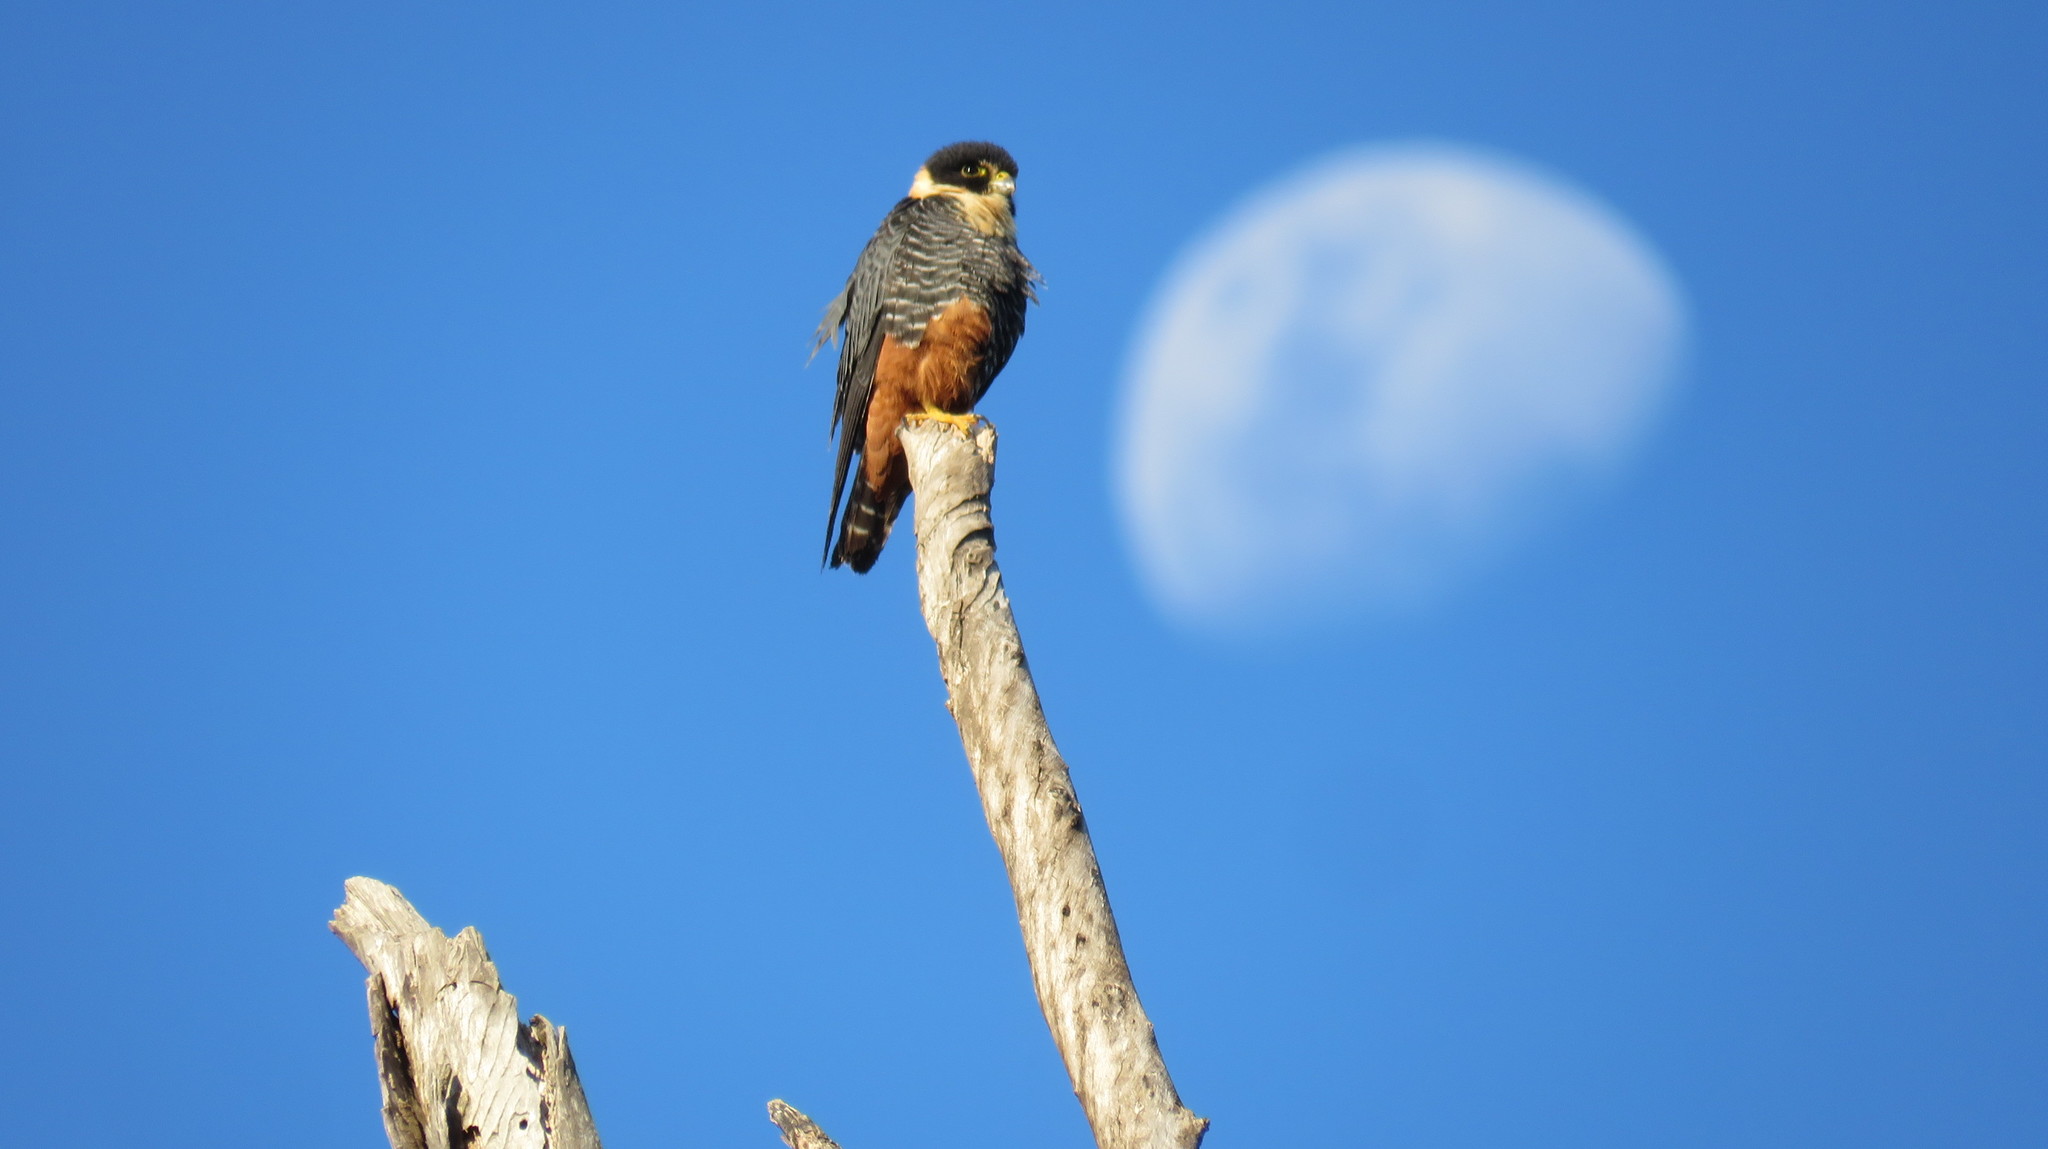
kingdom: Animalia
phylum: Chordata
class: Aves
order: Falconiformes
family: Falconidae
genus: Falco
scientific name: Falco rufigularis
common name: Bat falcon
